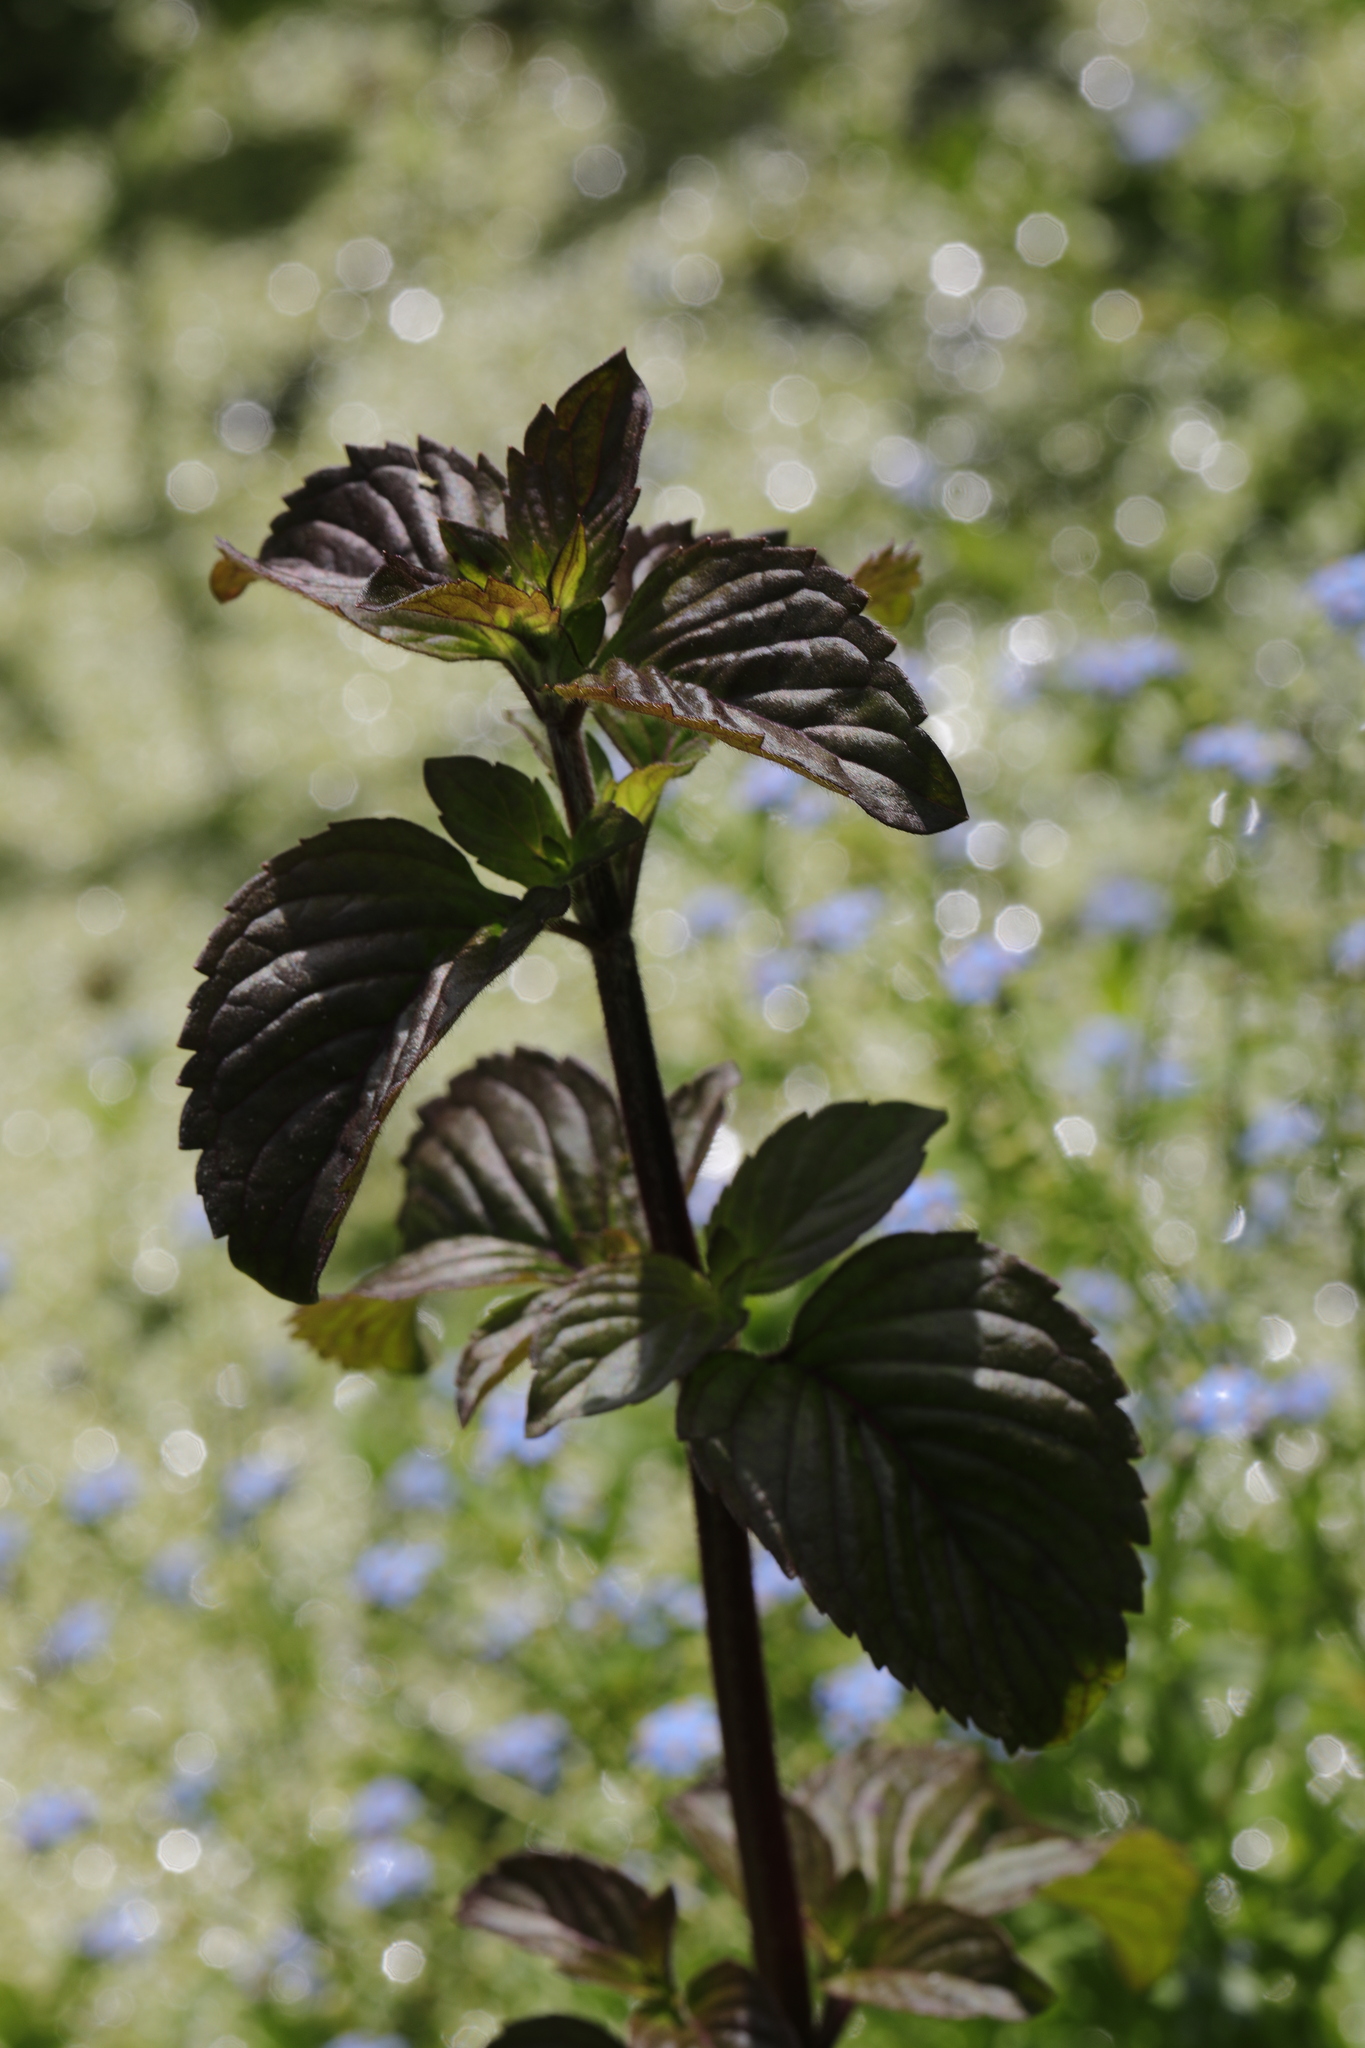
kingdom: Plantae
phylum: Tracheophyta
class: Magnoliopsida
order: Lamiales
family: Lamiaceae
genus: Mentha
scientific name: Mentha aquatica
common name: Water mint
